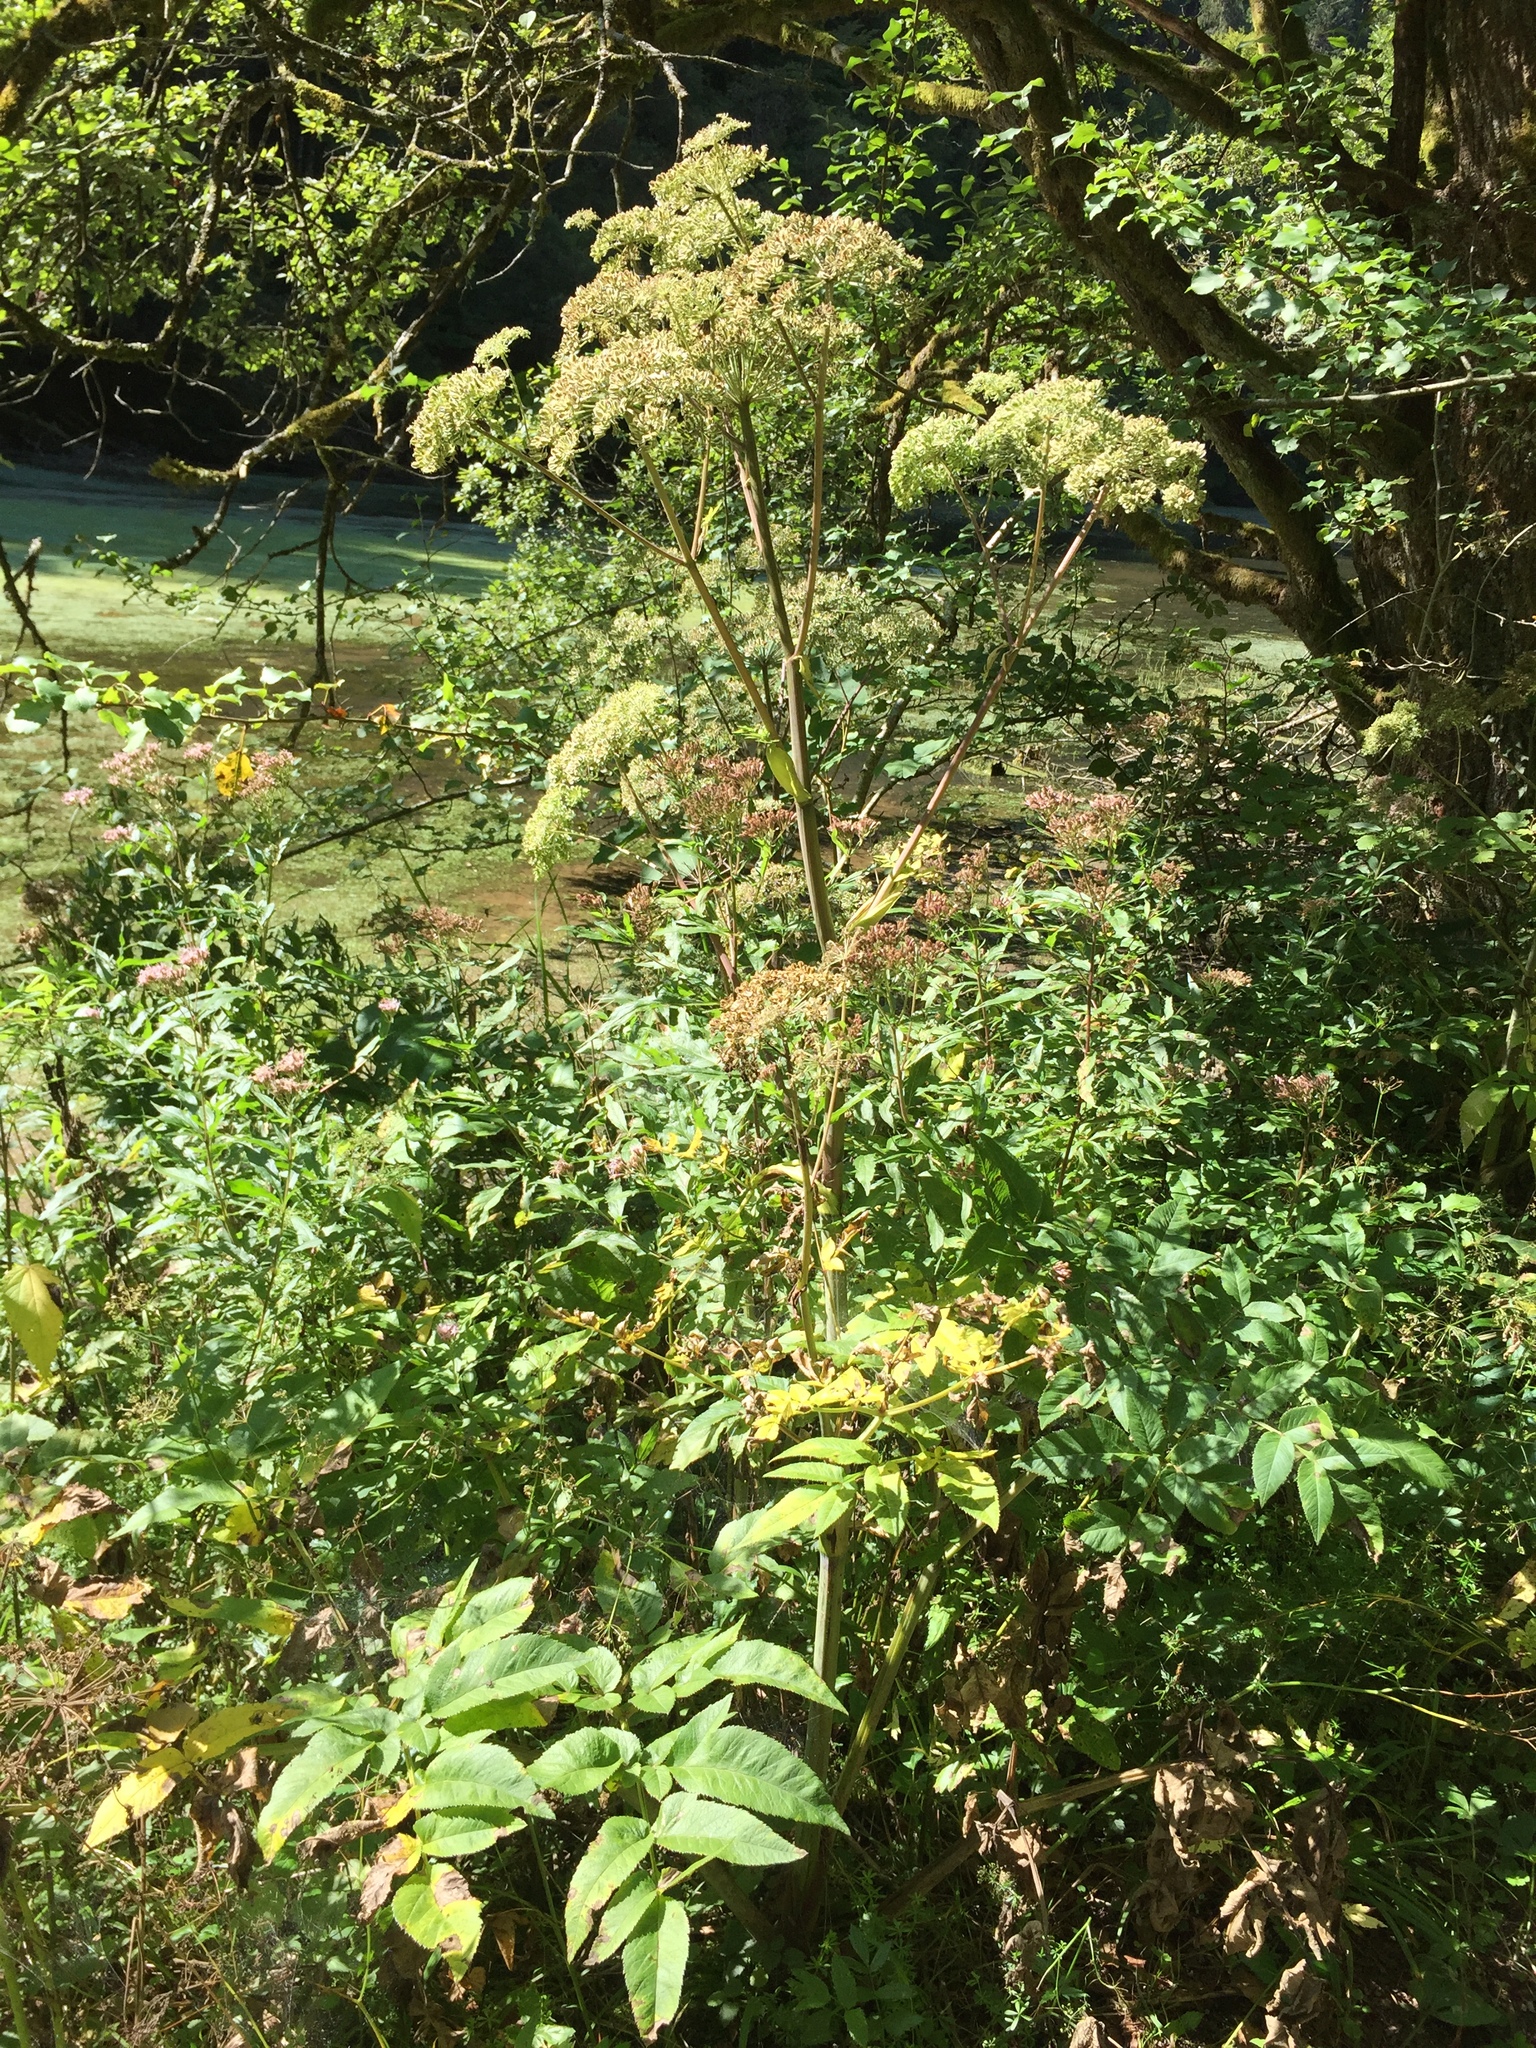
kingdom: Plantae
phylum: Tracheophyta
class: Magnoliopsida
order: Apiales
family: Apiaceae
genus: Angelica
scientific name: Angelica sylvestris
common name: Wild angelica
